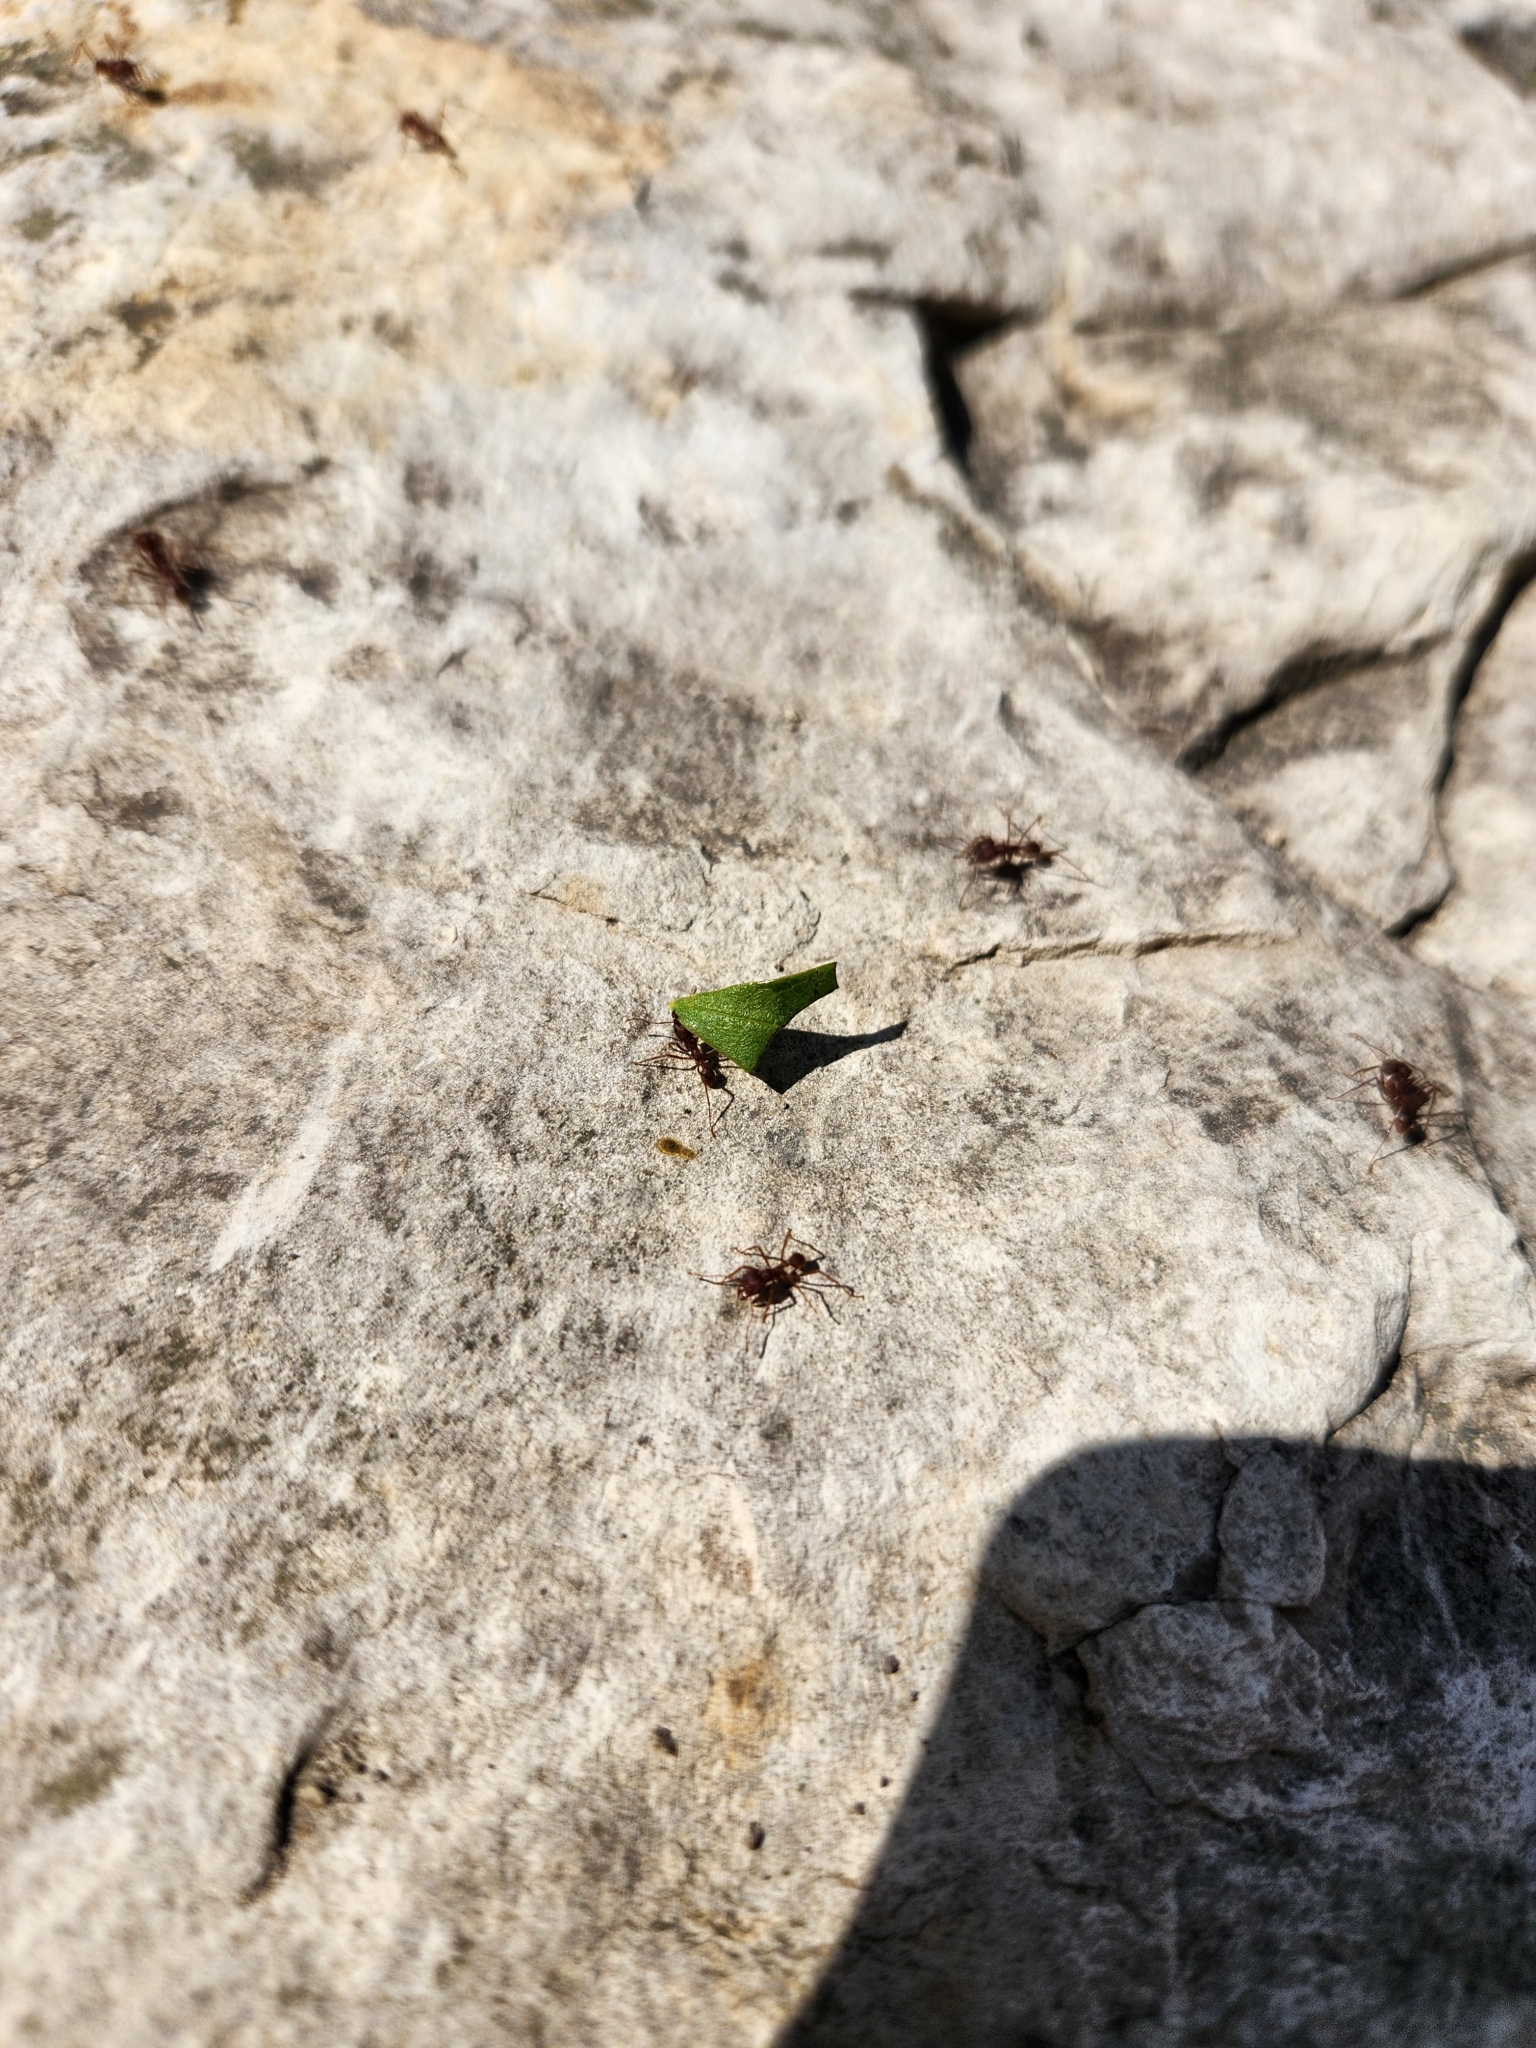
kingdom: Animalia
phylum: Arthropoda
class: Insecta
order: Hymenoptera
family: Formicidae
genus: Atta
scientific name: Atta texana
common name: Texas leafcutting ant
